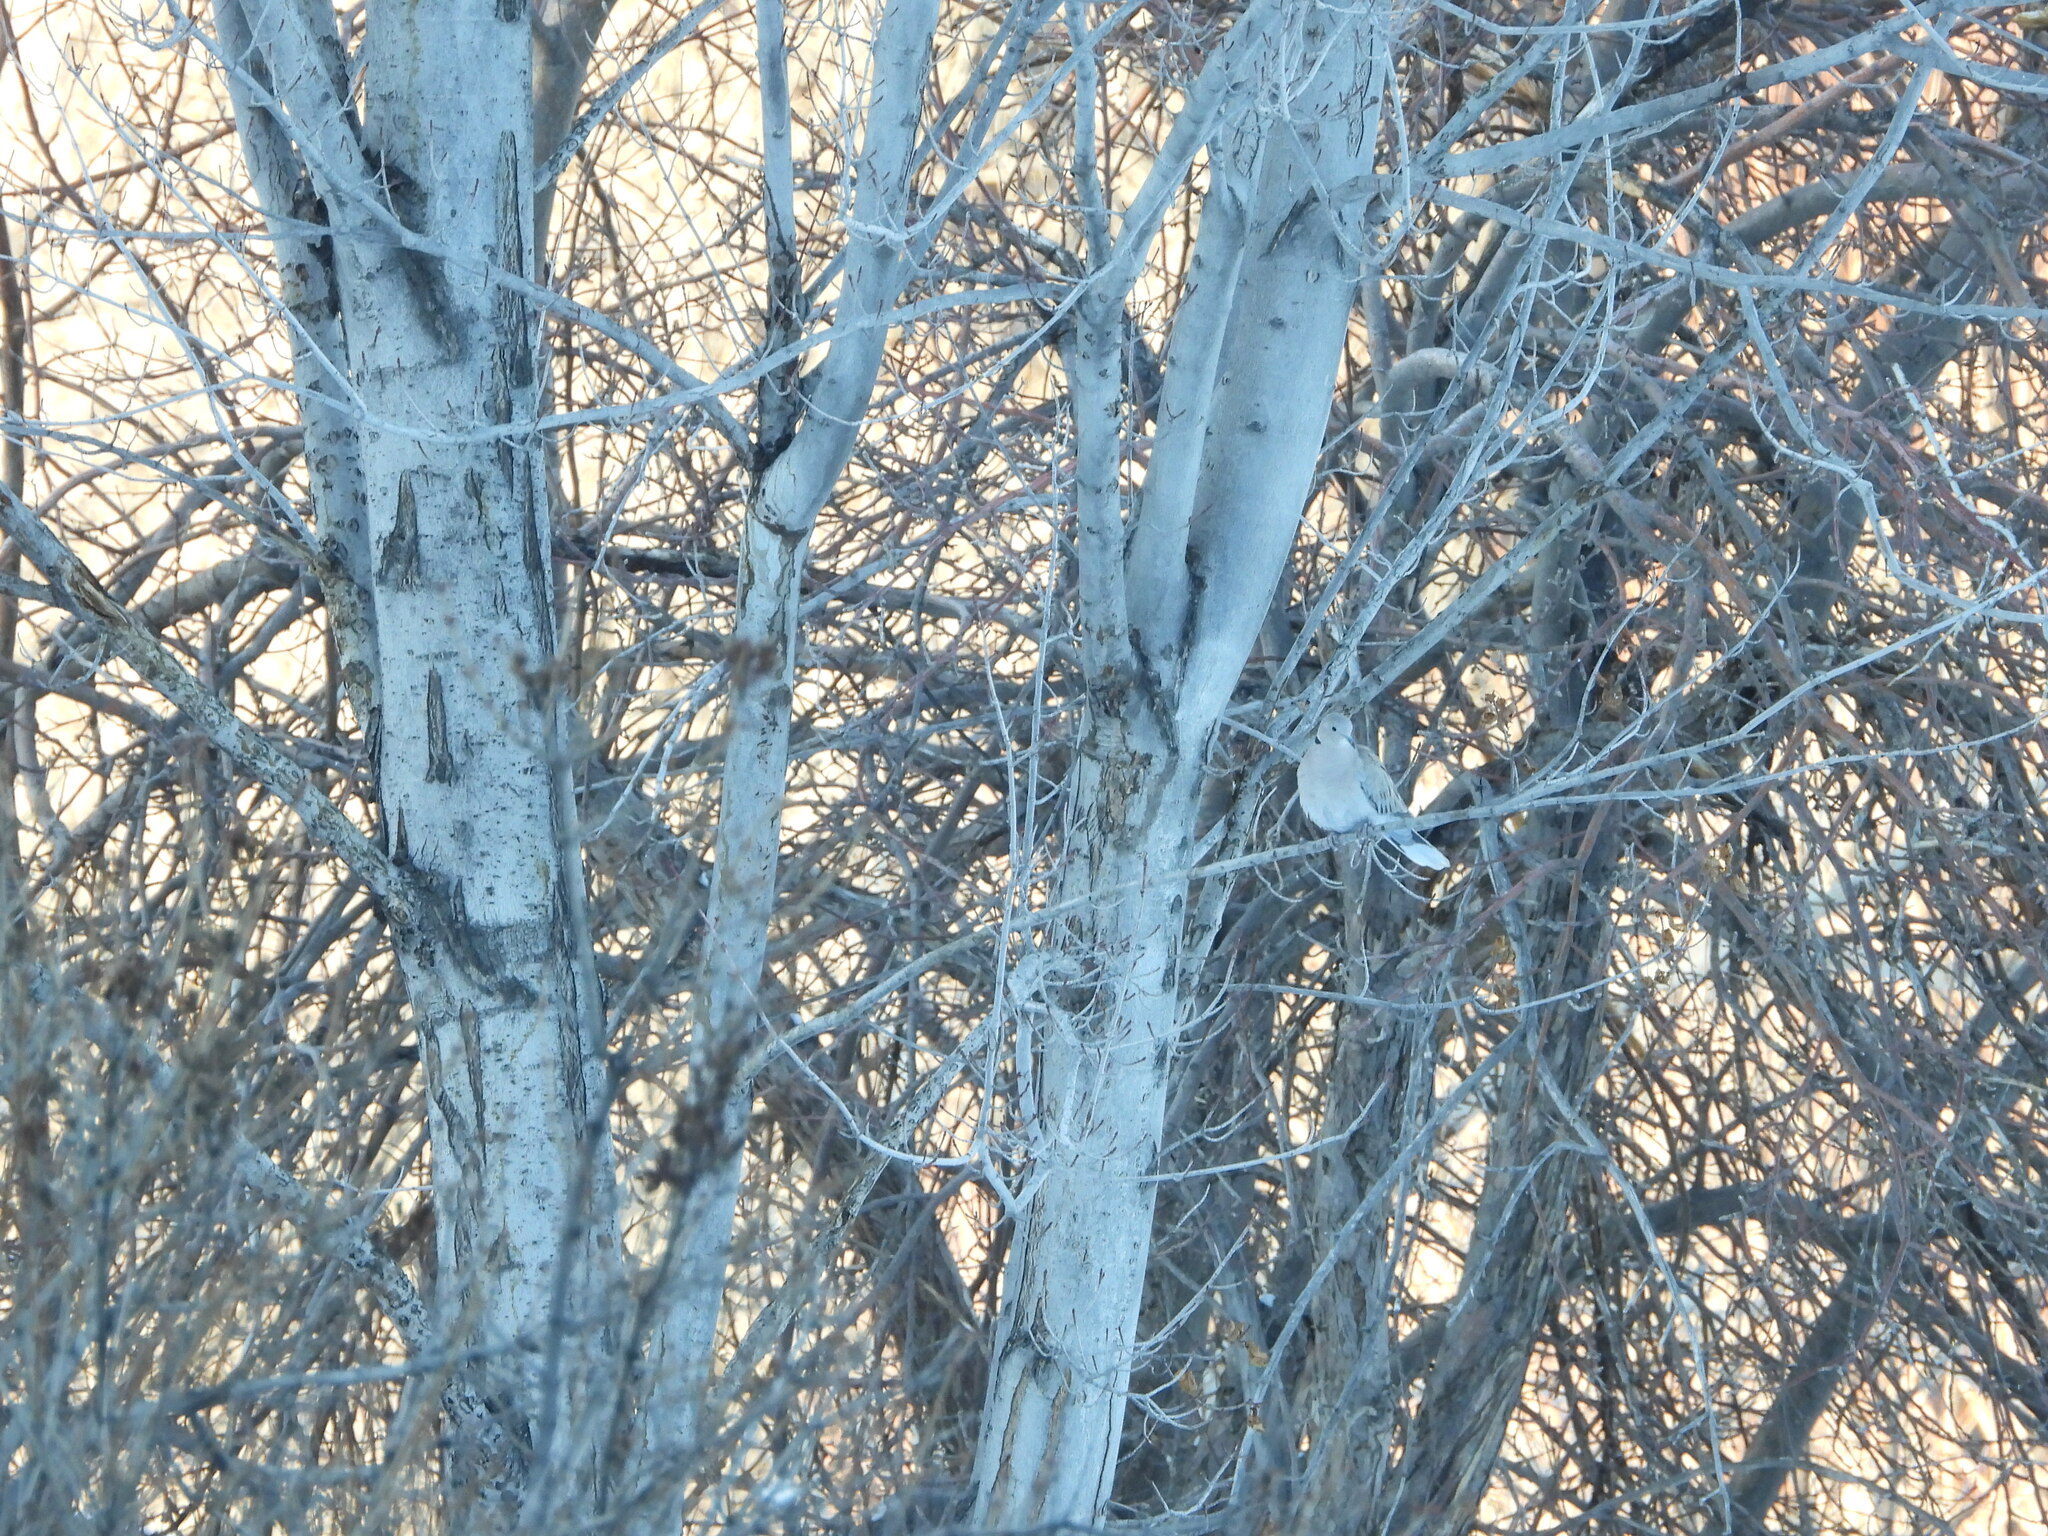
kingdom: Animalia
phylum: Chordata
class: Aves
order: Columbiformes
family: Columbidae
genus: Streptopelia
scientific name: Streptopelia decaocto
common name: Eurasian collared dove
